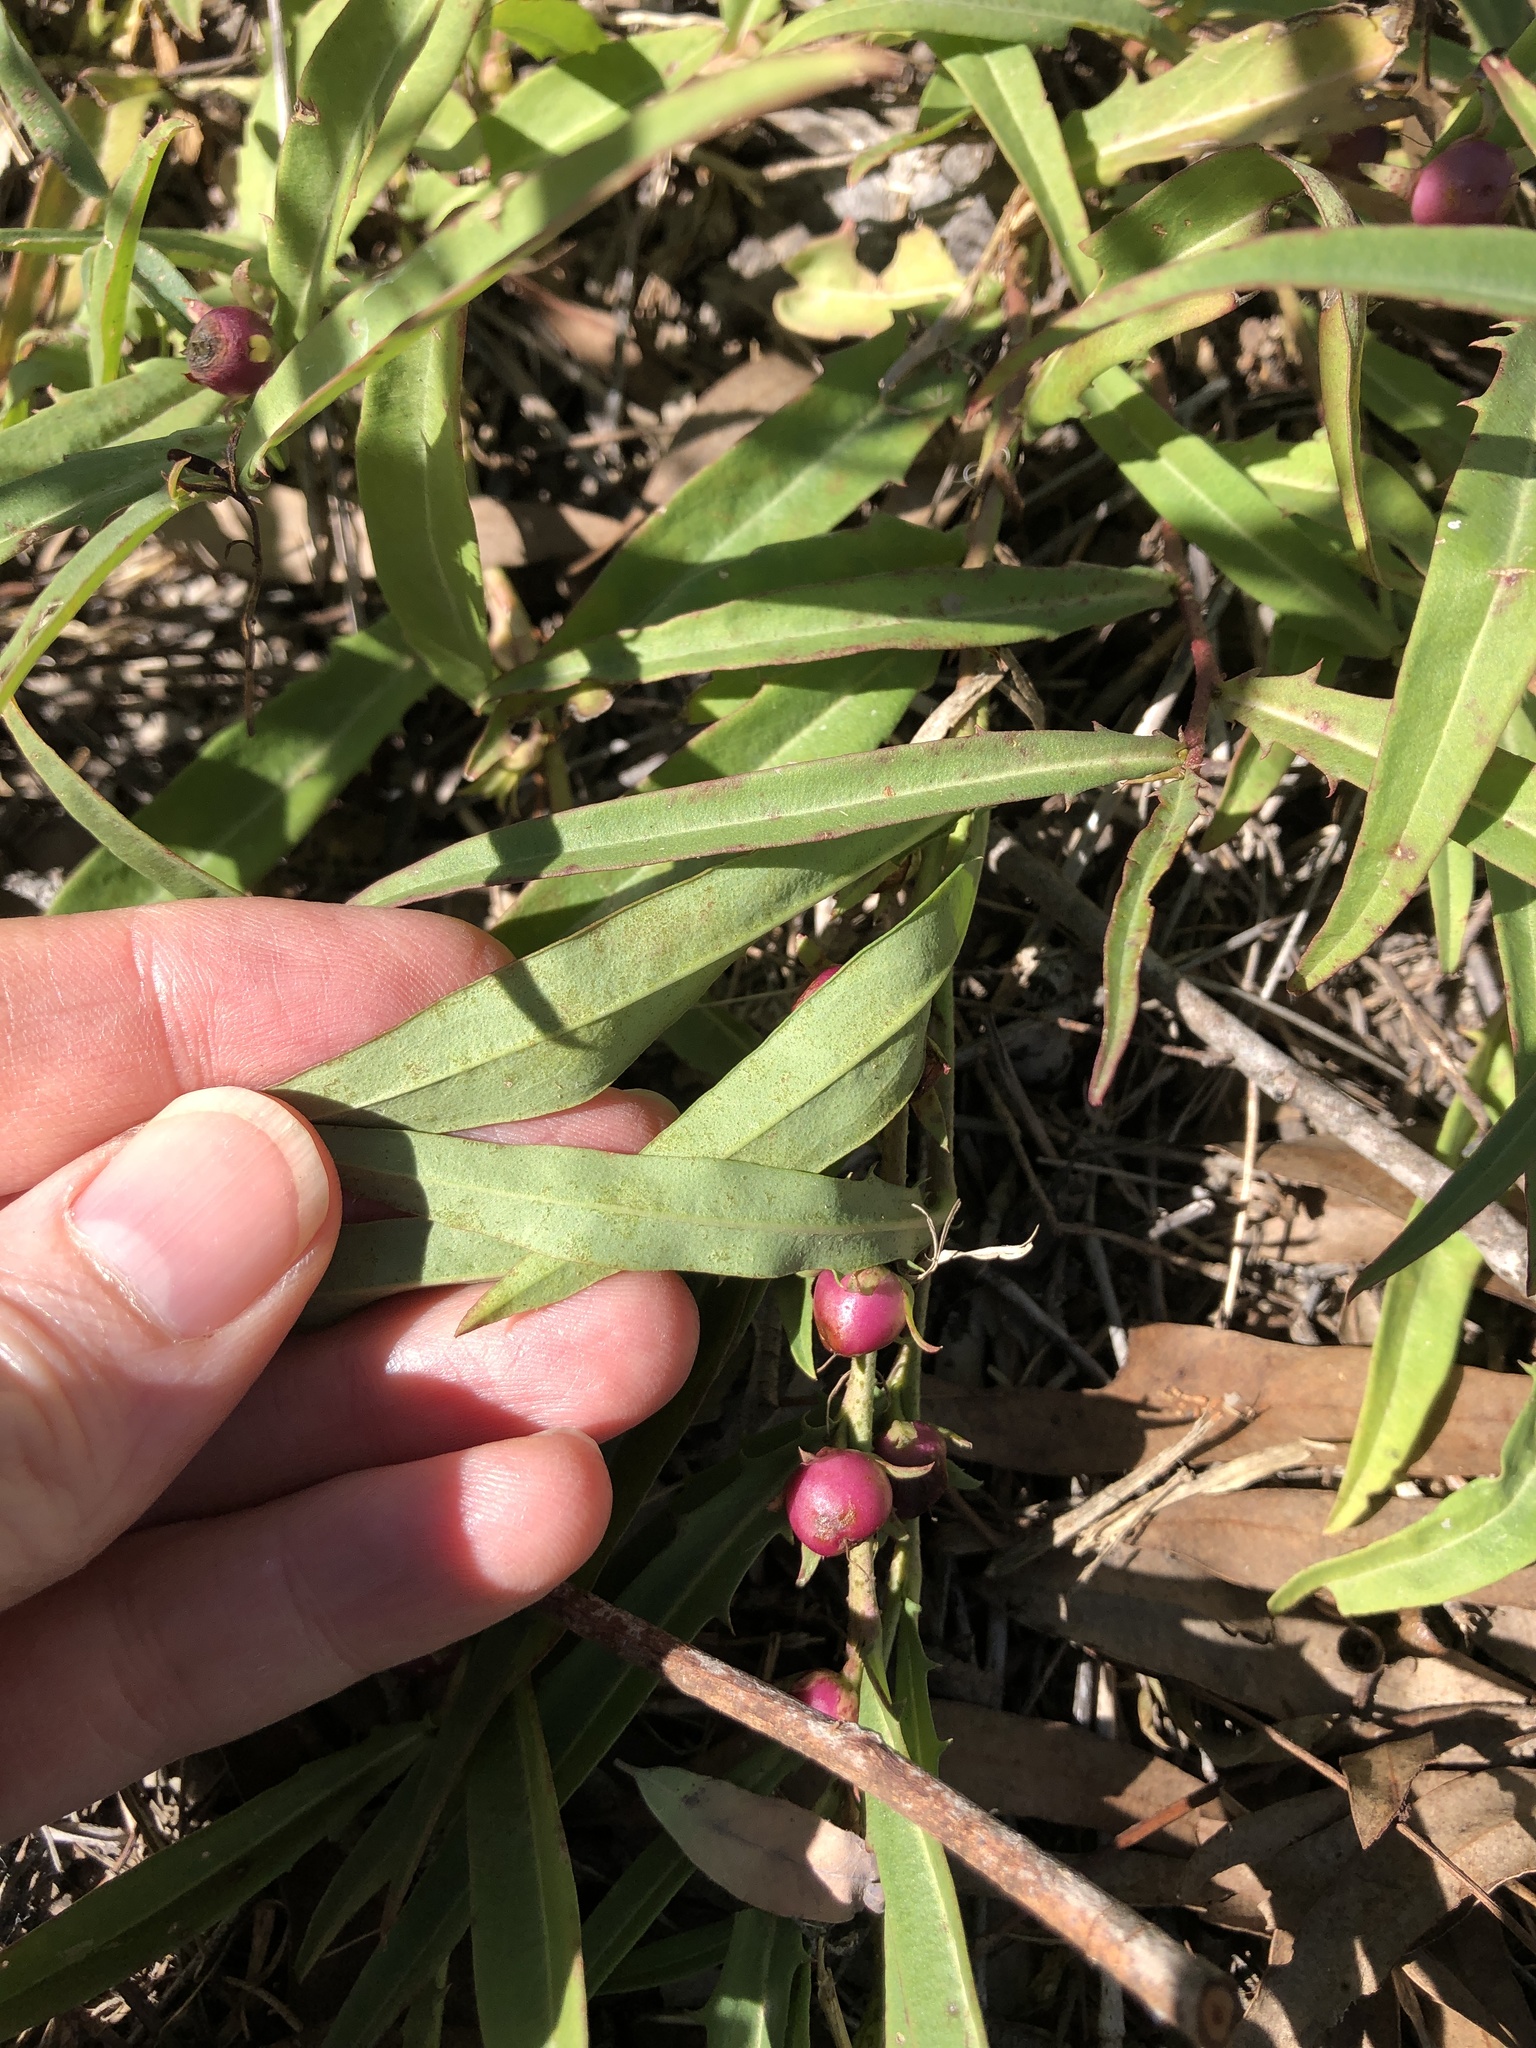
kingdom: Plantae
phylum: Tracheophyta
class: Magnoliopsida
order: Lamiales
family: Scrophulariaceae
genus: Eremophila
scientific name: Eremophila debilis
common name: Winter-apple
